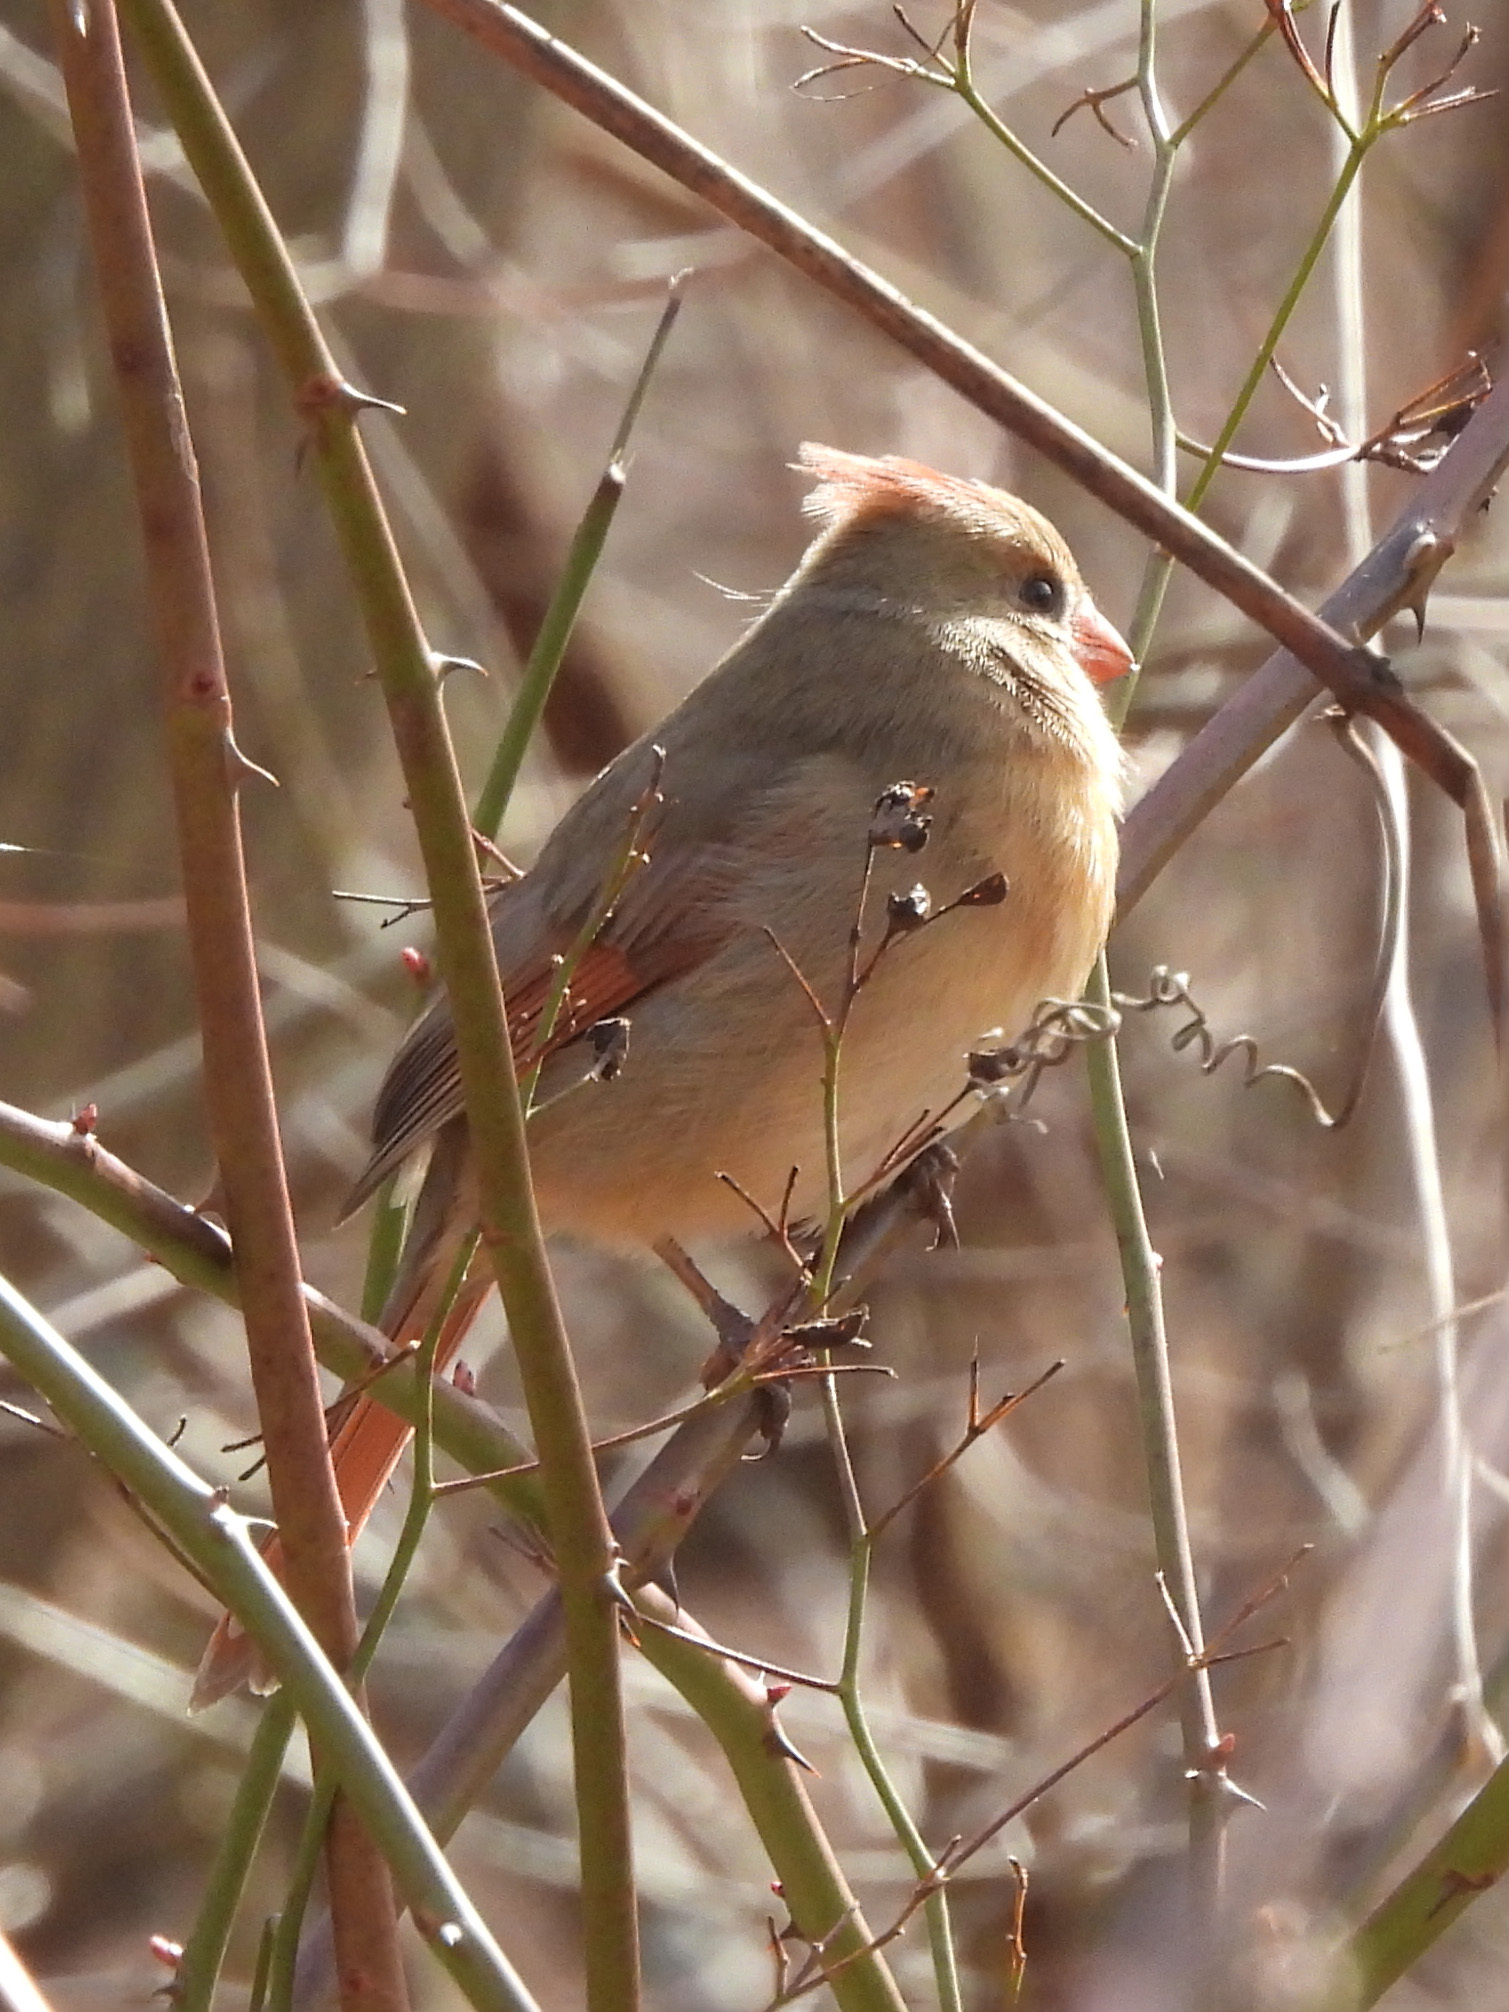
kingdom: Animalia
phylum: Chordata
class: Aves
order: Passeriformes
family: Cardinalidae
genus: Cardinalis
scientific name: Cardinalis cardinalis
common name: Northern cardinal
